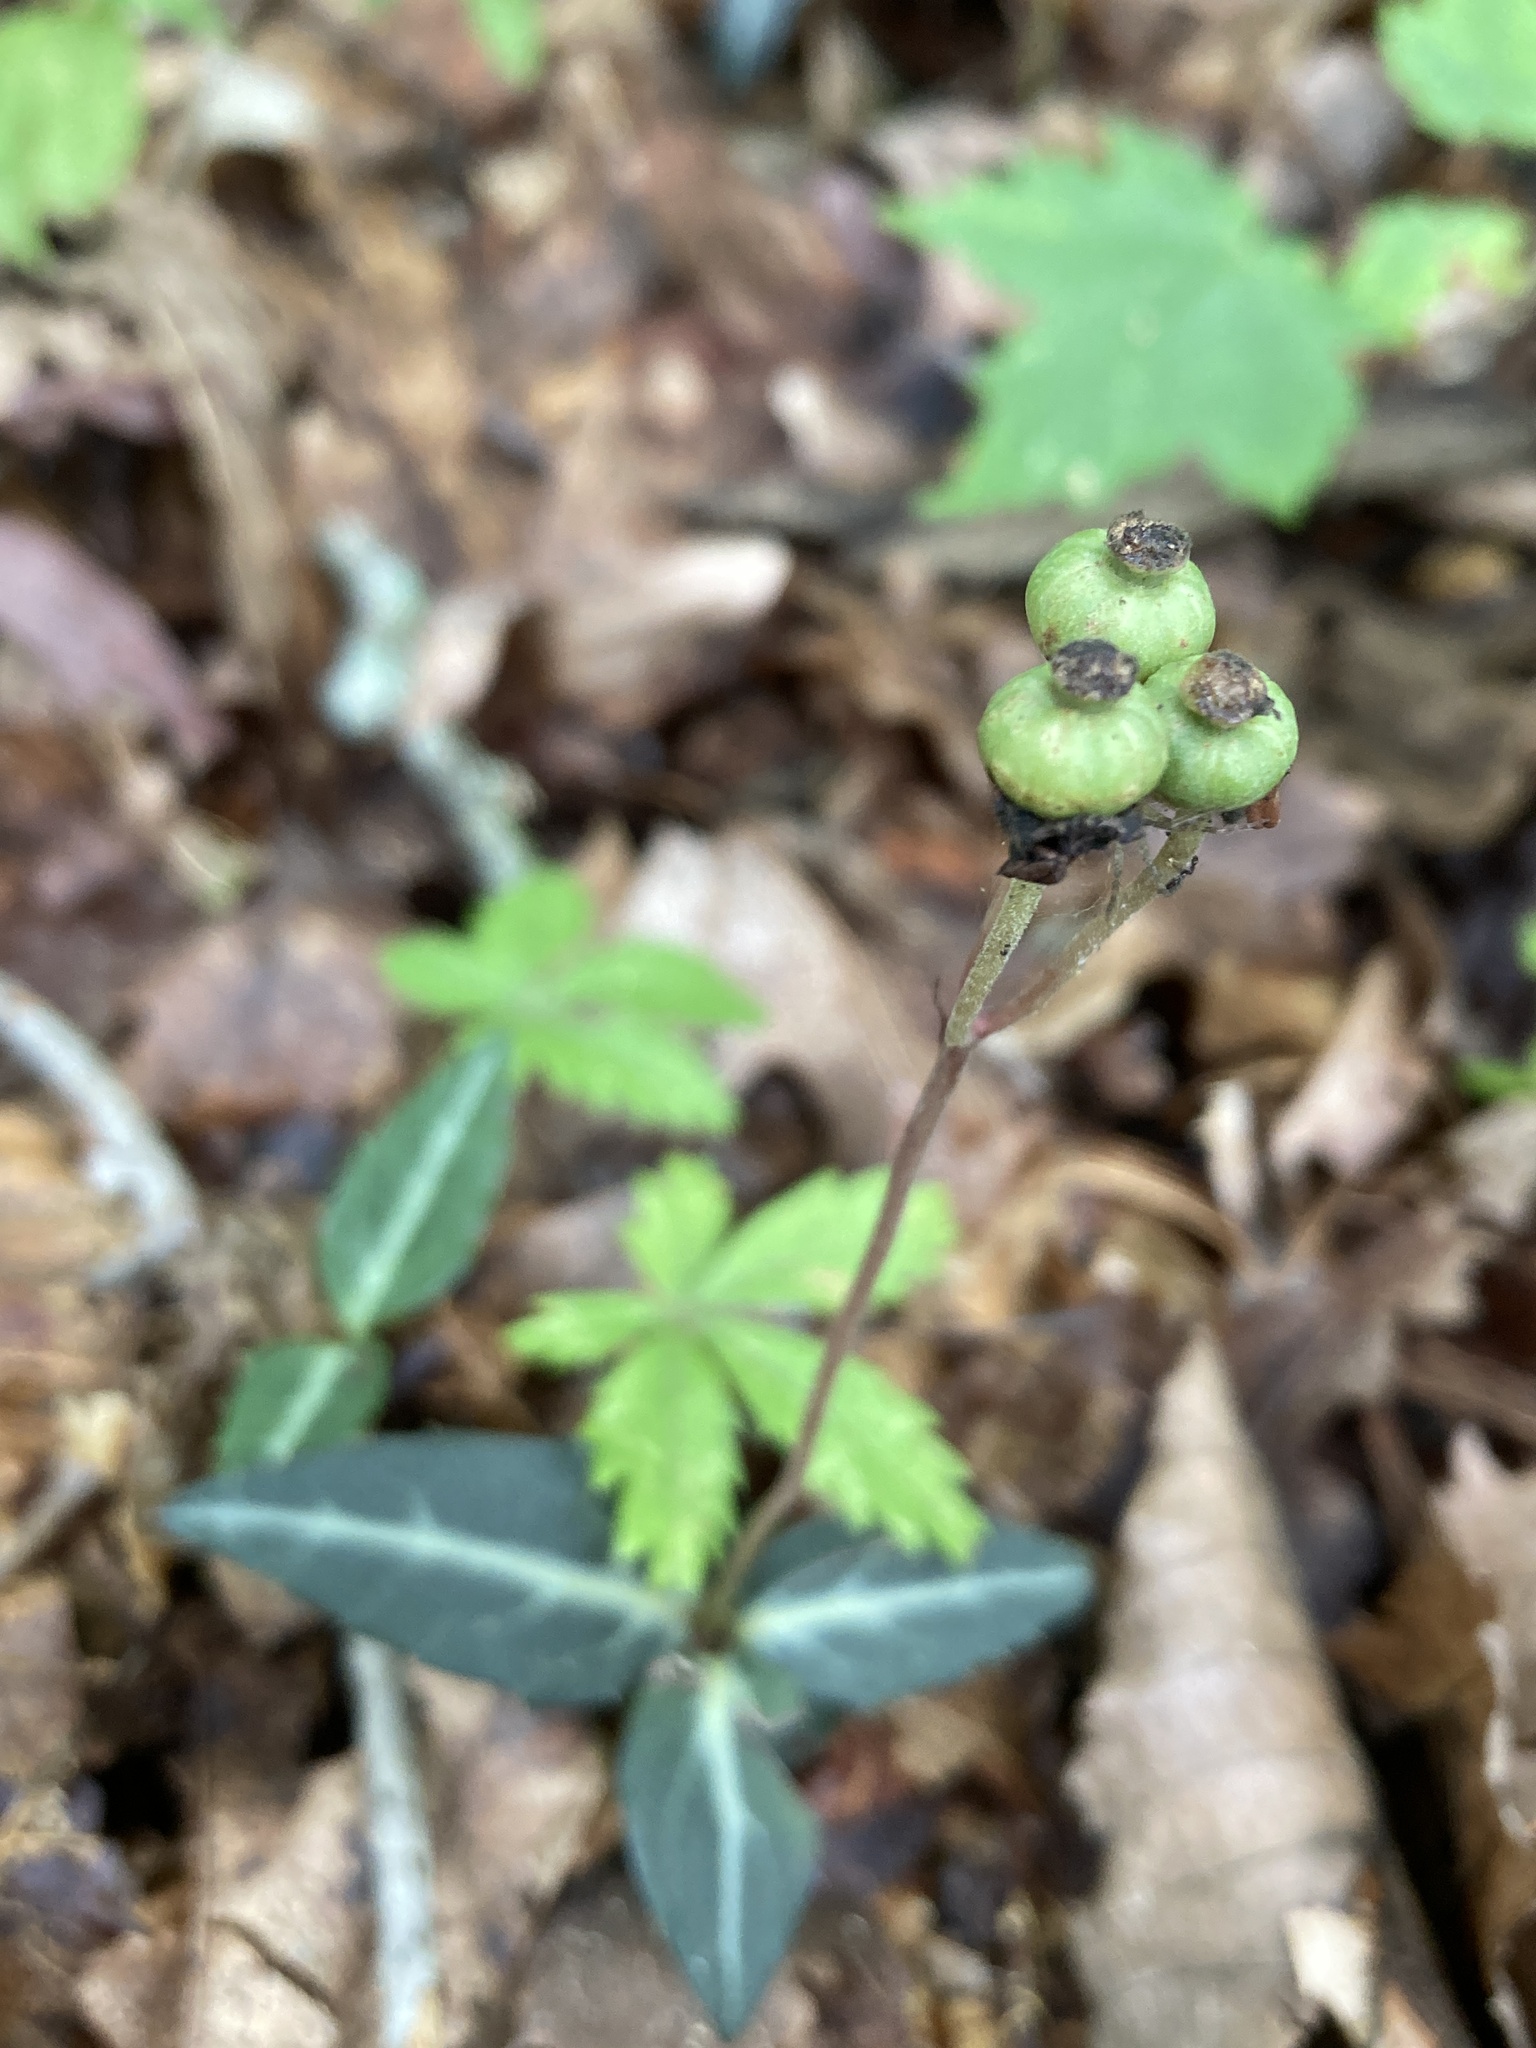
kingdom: Plantae
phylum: Tracheophyta
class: Magnoliopsida
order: Ericales
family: Ericaceae
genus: Chimaphila
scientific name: Chimaphila maculata
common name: Spotted pipsissewa
